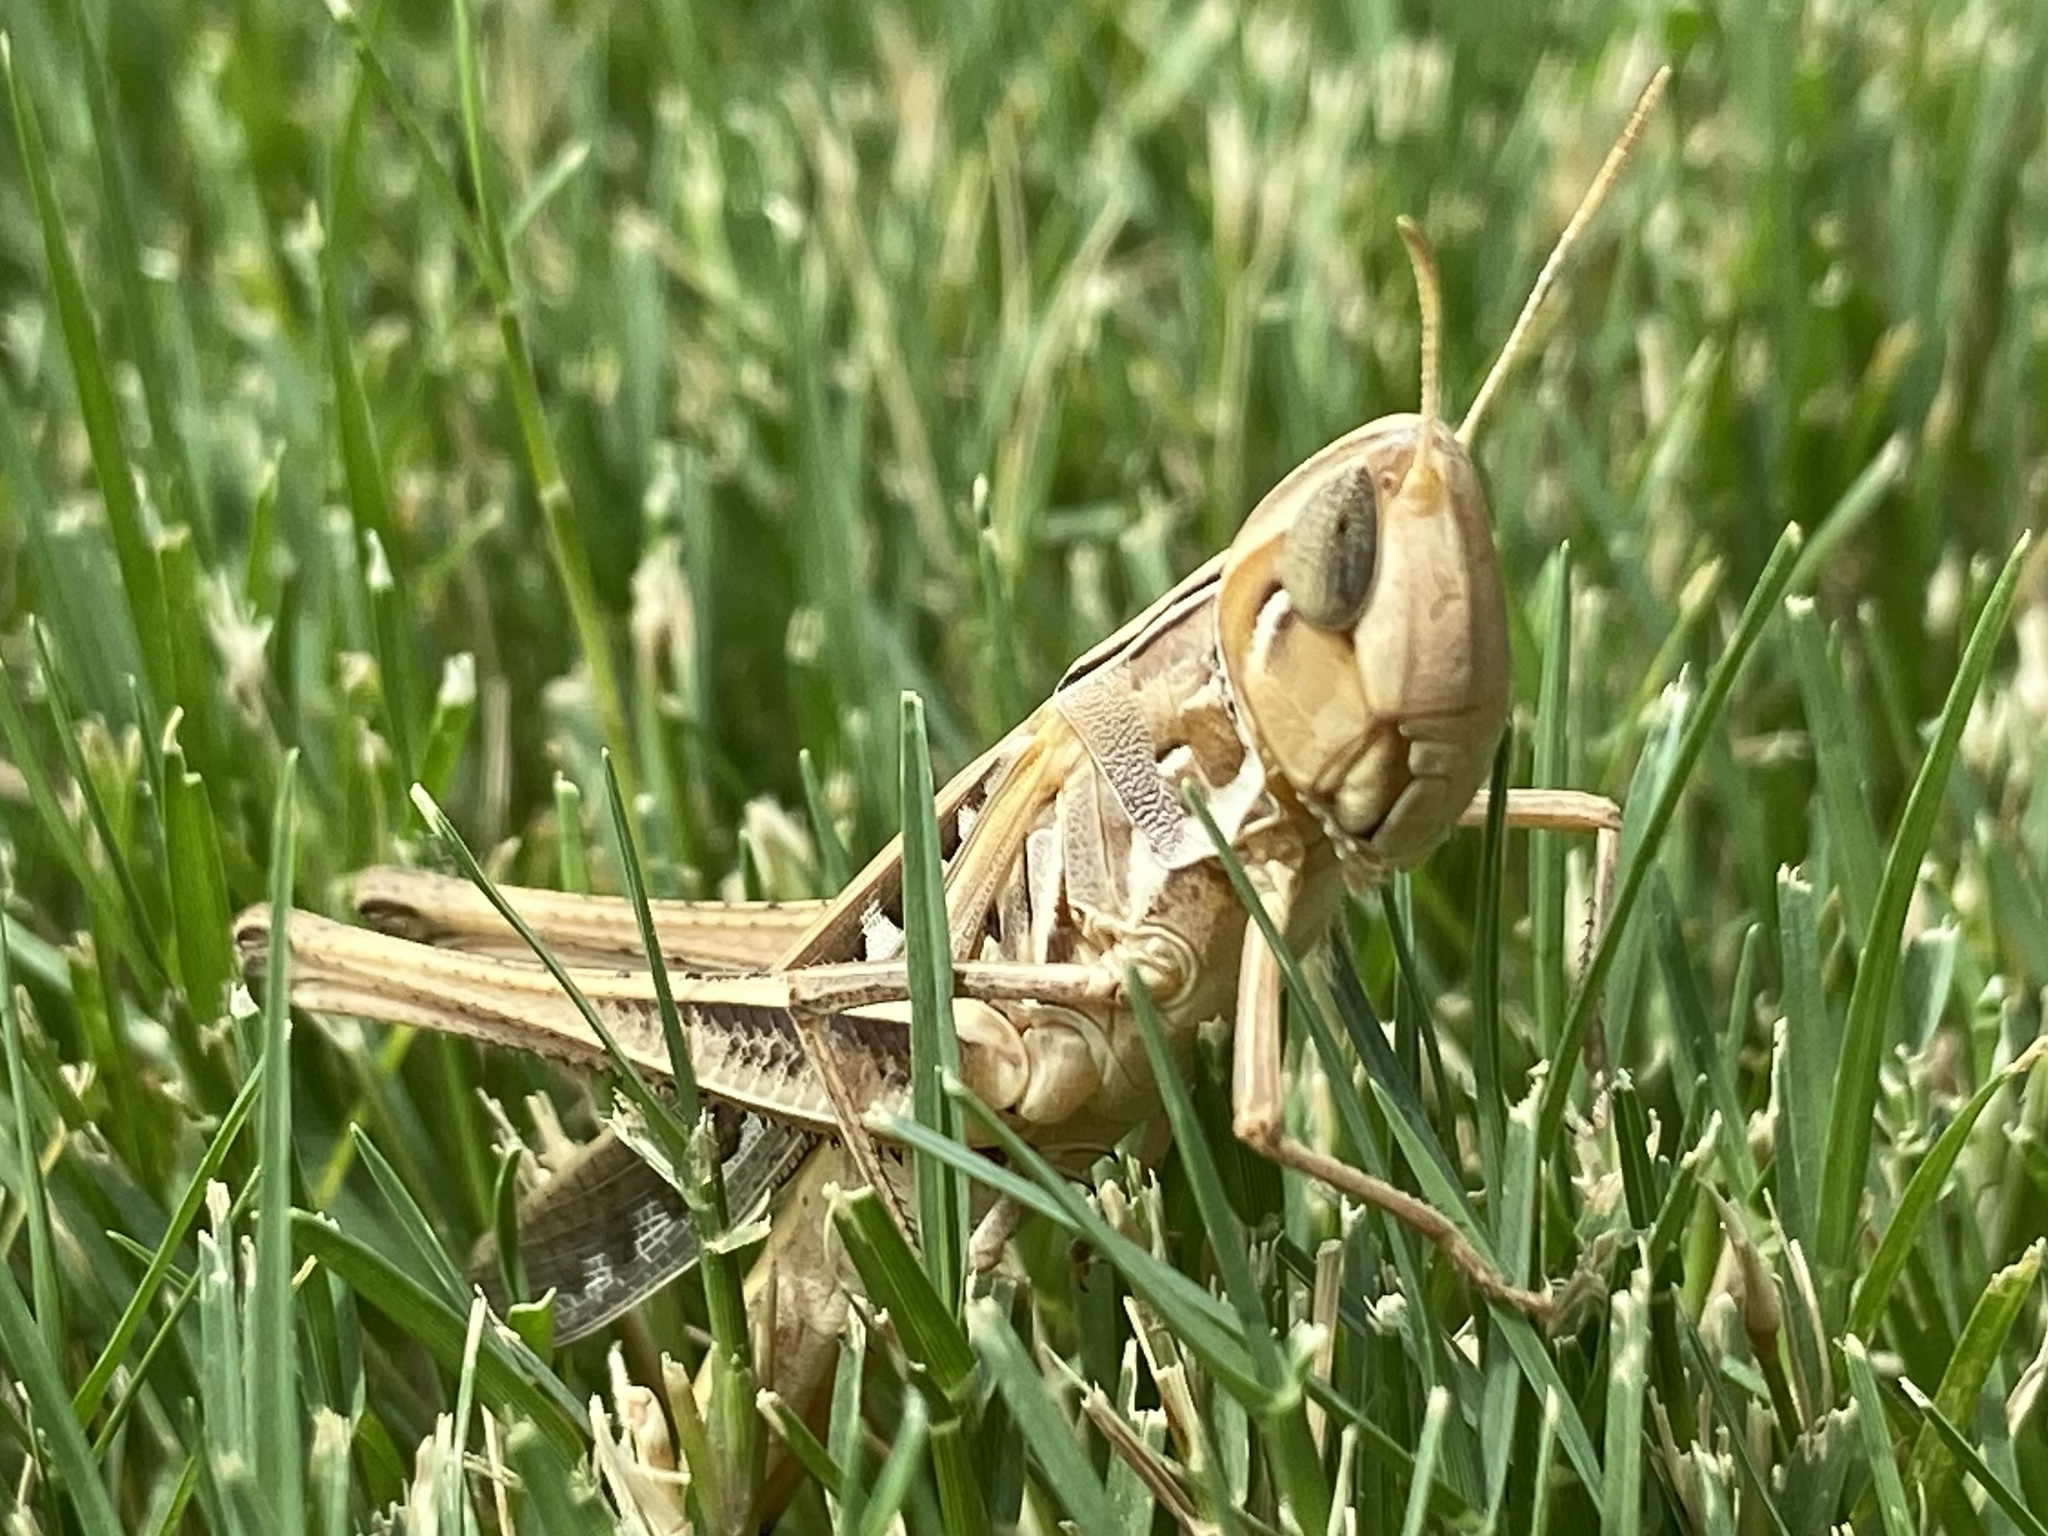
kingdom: Animalia
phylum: Arthropoda
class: Insecta
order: Orthoptera
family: Acrididae
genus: Syrbula
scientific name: Syrbula admirabilis
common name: Handsome grasshopper
